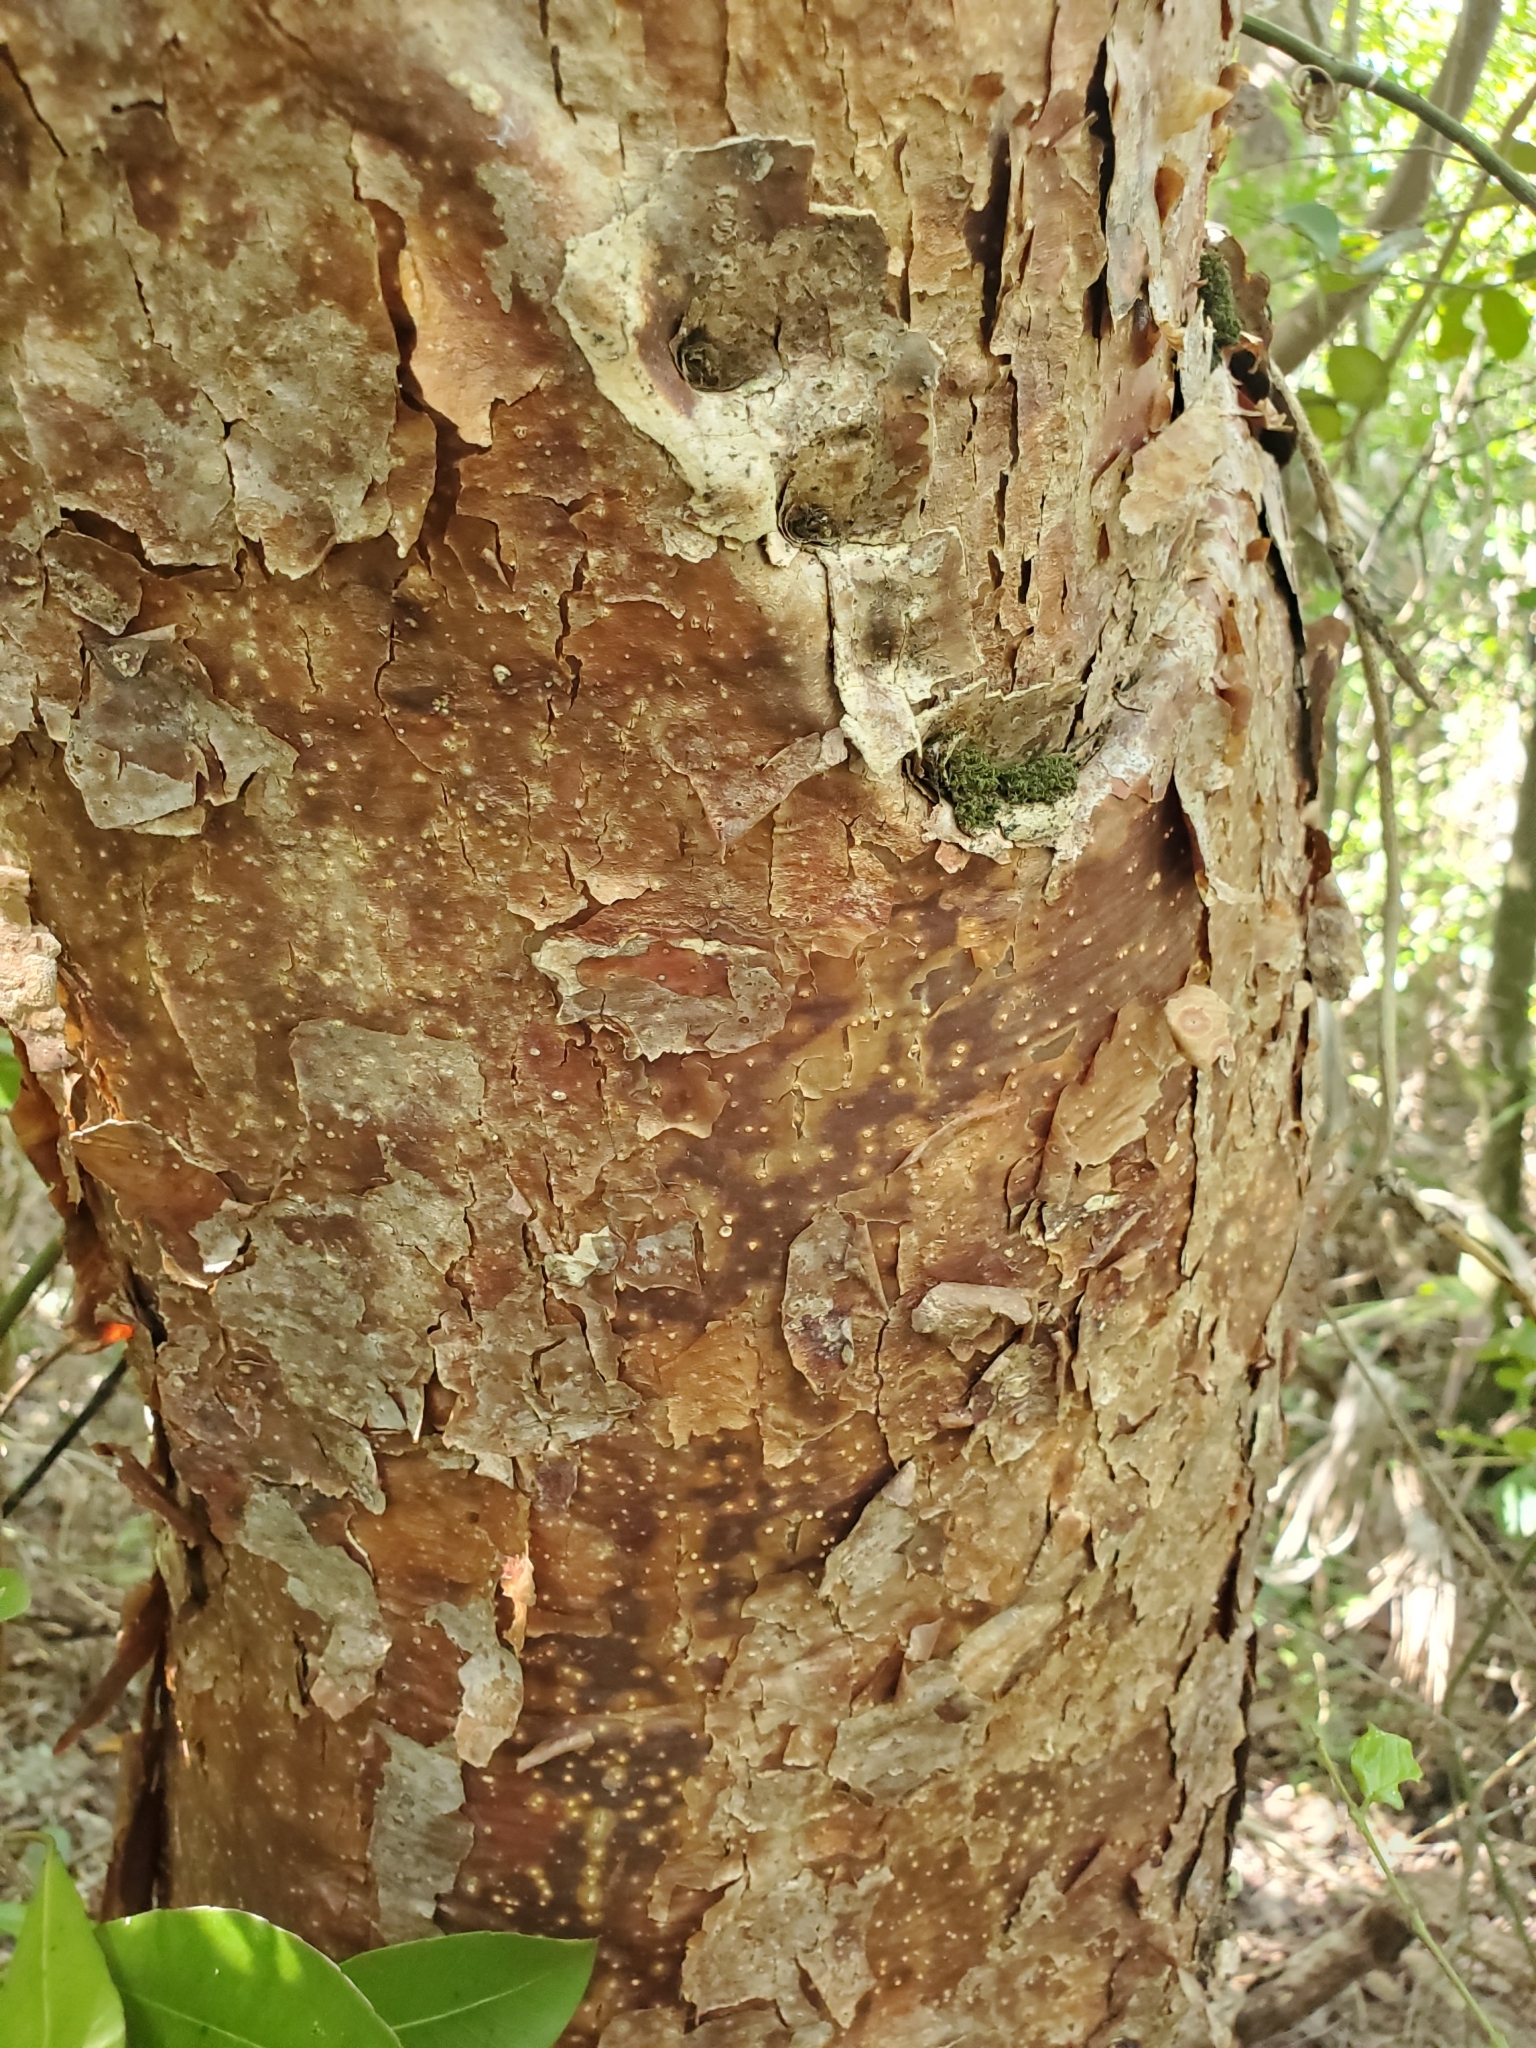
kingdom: Plantae
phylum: Tracheophyta
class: Magnoliopsida
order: Sapindales
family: Burseraceae
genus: Bursera
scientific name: Bursera simaruba
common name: Turpentine tree
